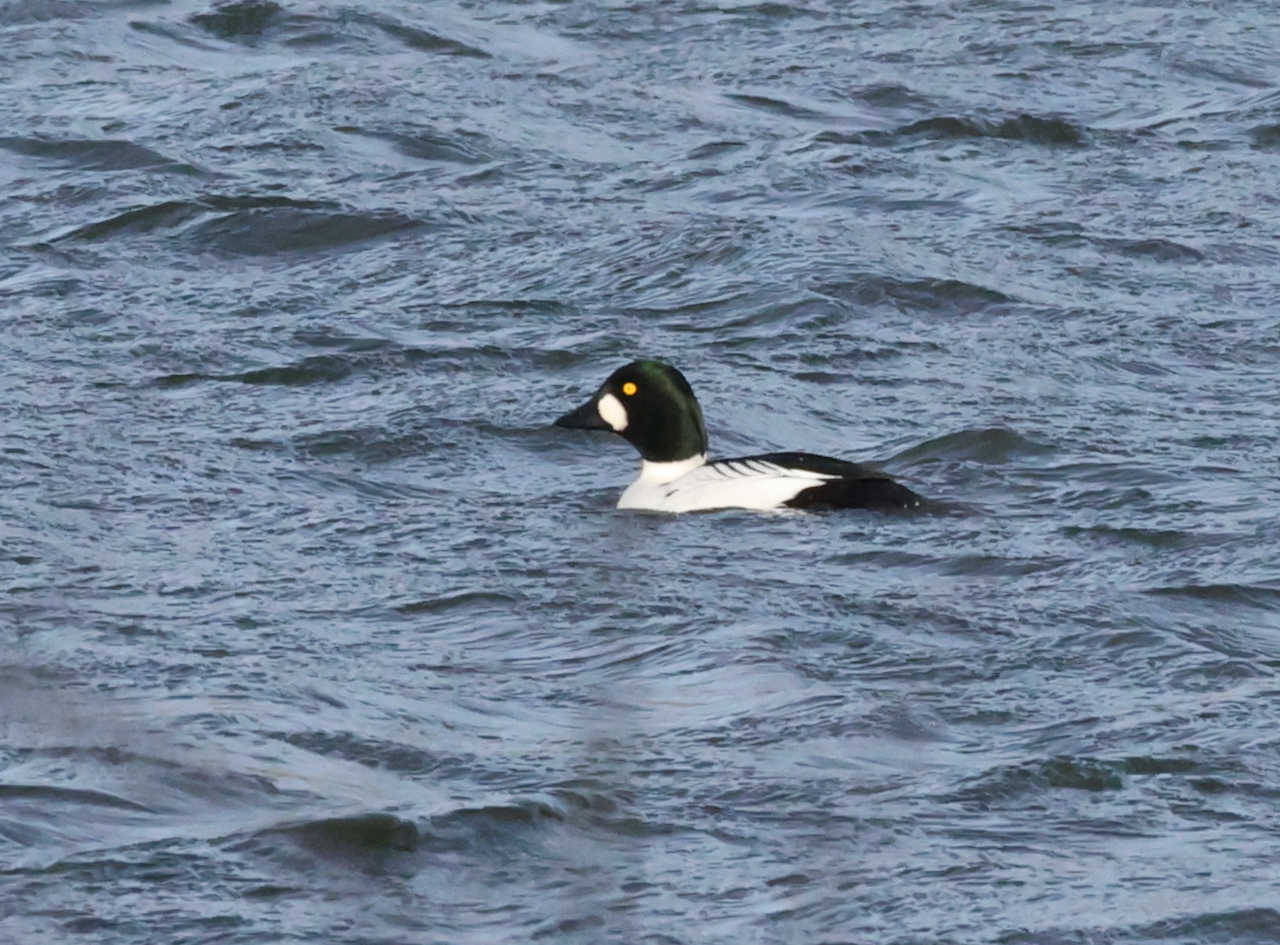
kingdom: Animalia
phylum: Chordata
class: Aves
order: Anseriformes
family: Anatidae
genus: Bucephala
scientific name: Bucephala clangula
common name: Common goldeneye
